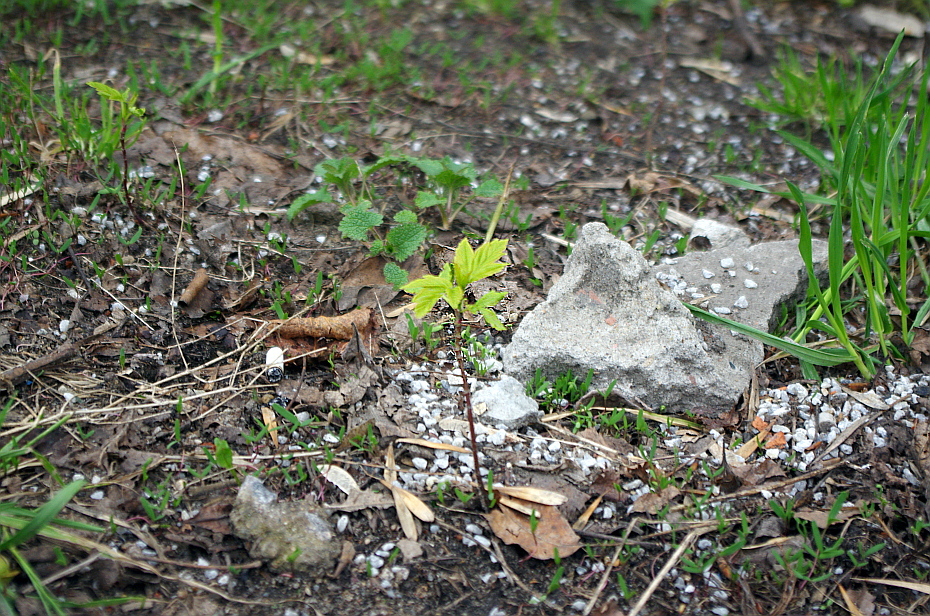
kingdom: Plantae
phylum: Tracheophyta
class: Magnoliopsida
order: Sapindales
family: Sapindaceae
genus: Acer
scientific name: Acer negundo
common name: Ashleaf maple
